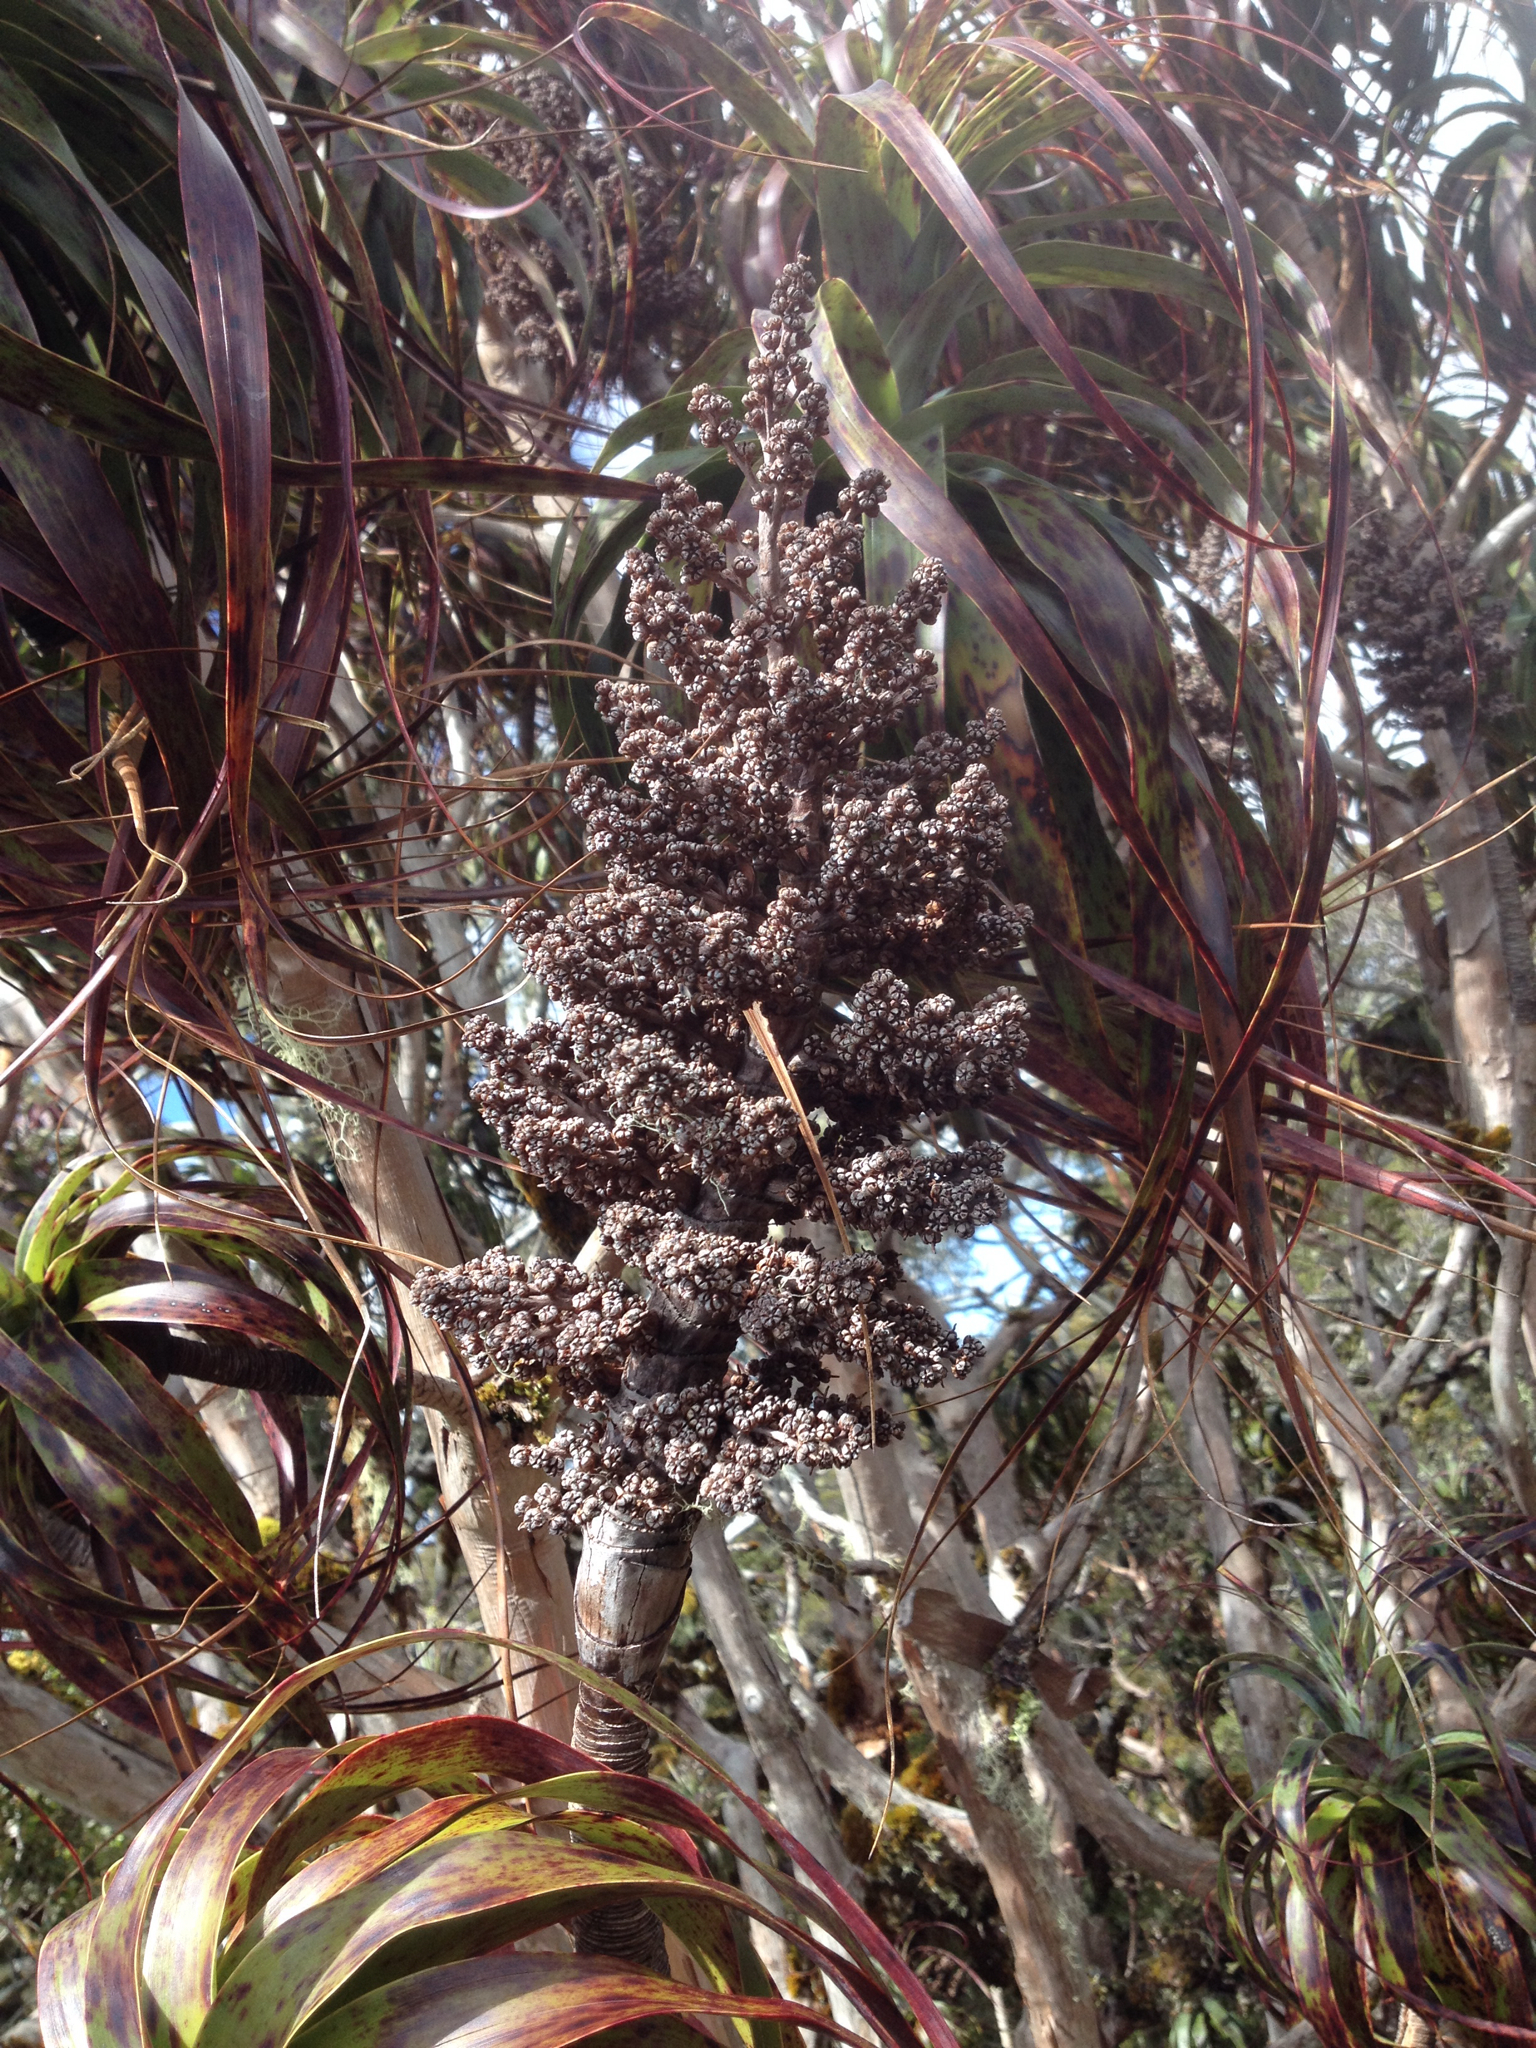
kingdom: Plantae
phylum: Tracheophyta
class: Magnoliopsida
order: Ericales
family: Ericaceae
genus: Dracophyllum
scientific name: Dracophyllum traversii
